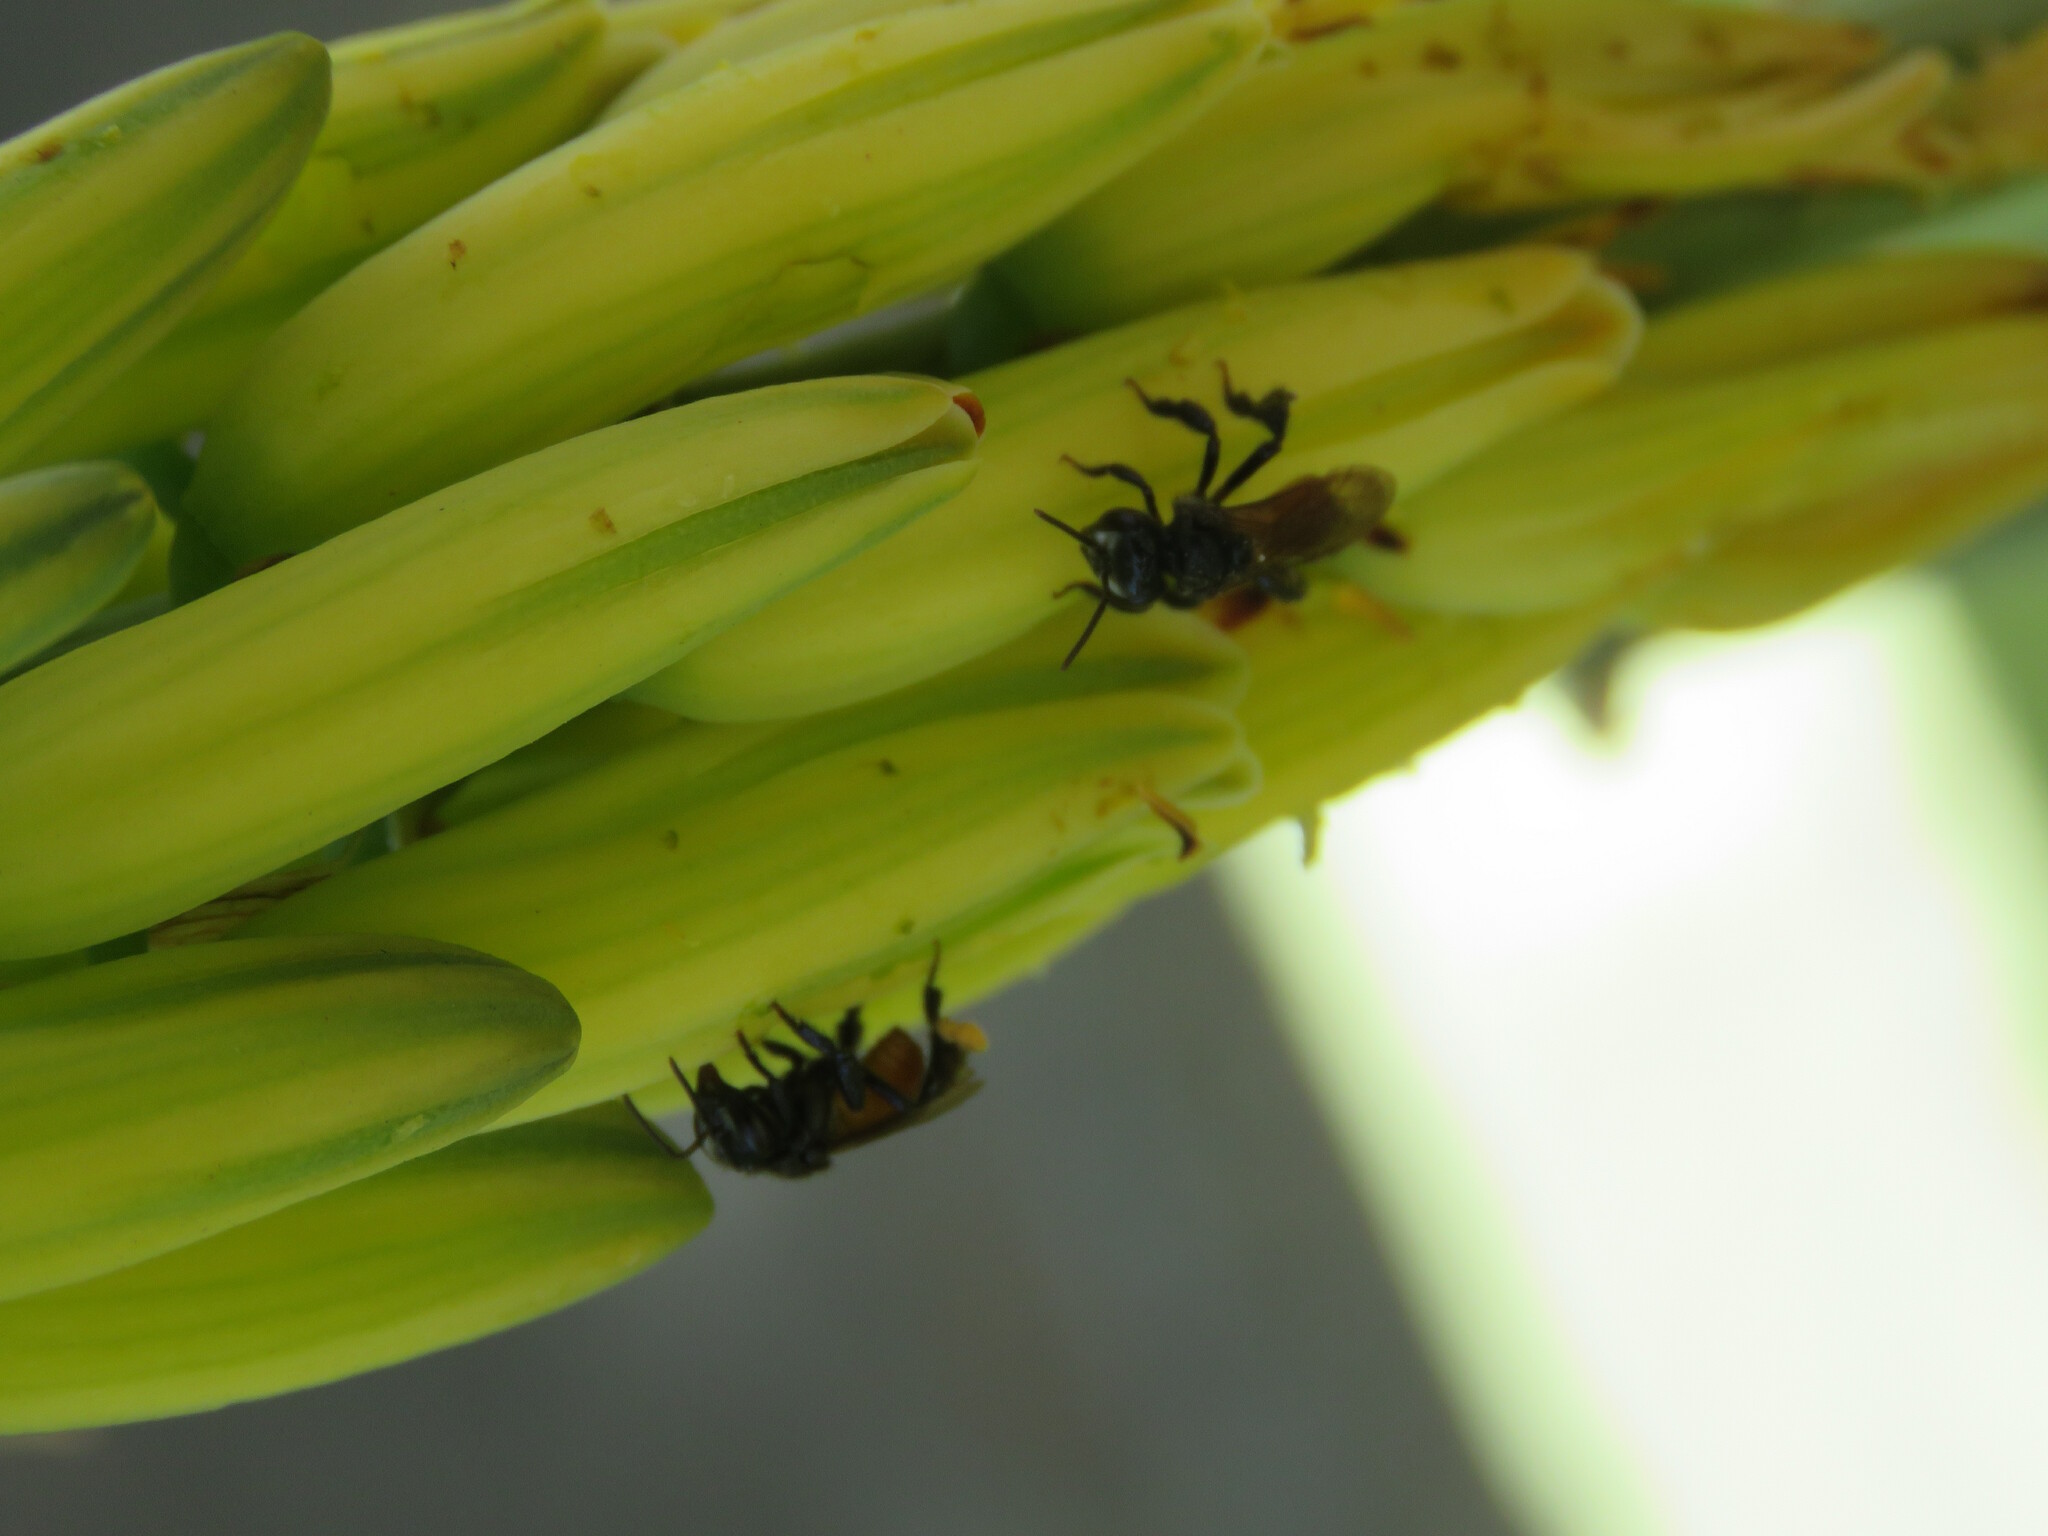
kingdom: Animalia
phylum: Arthropoda
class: Insecta
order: Hymenoptera
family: Apidae
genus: Trigona
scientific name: Trigona fulviventris
